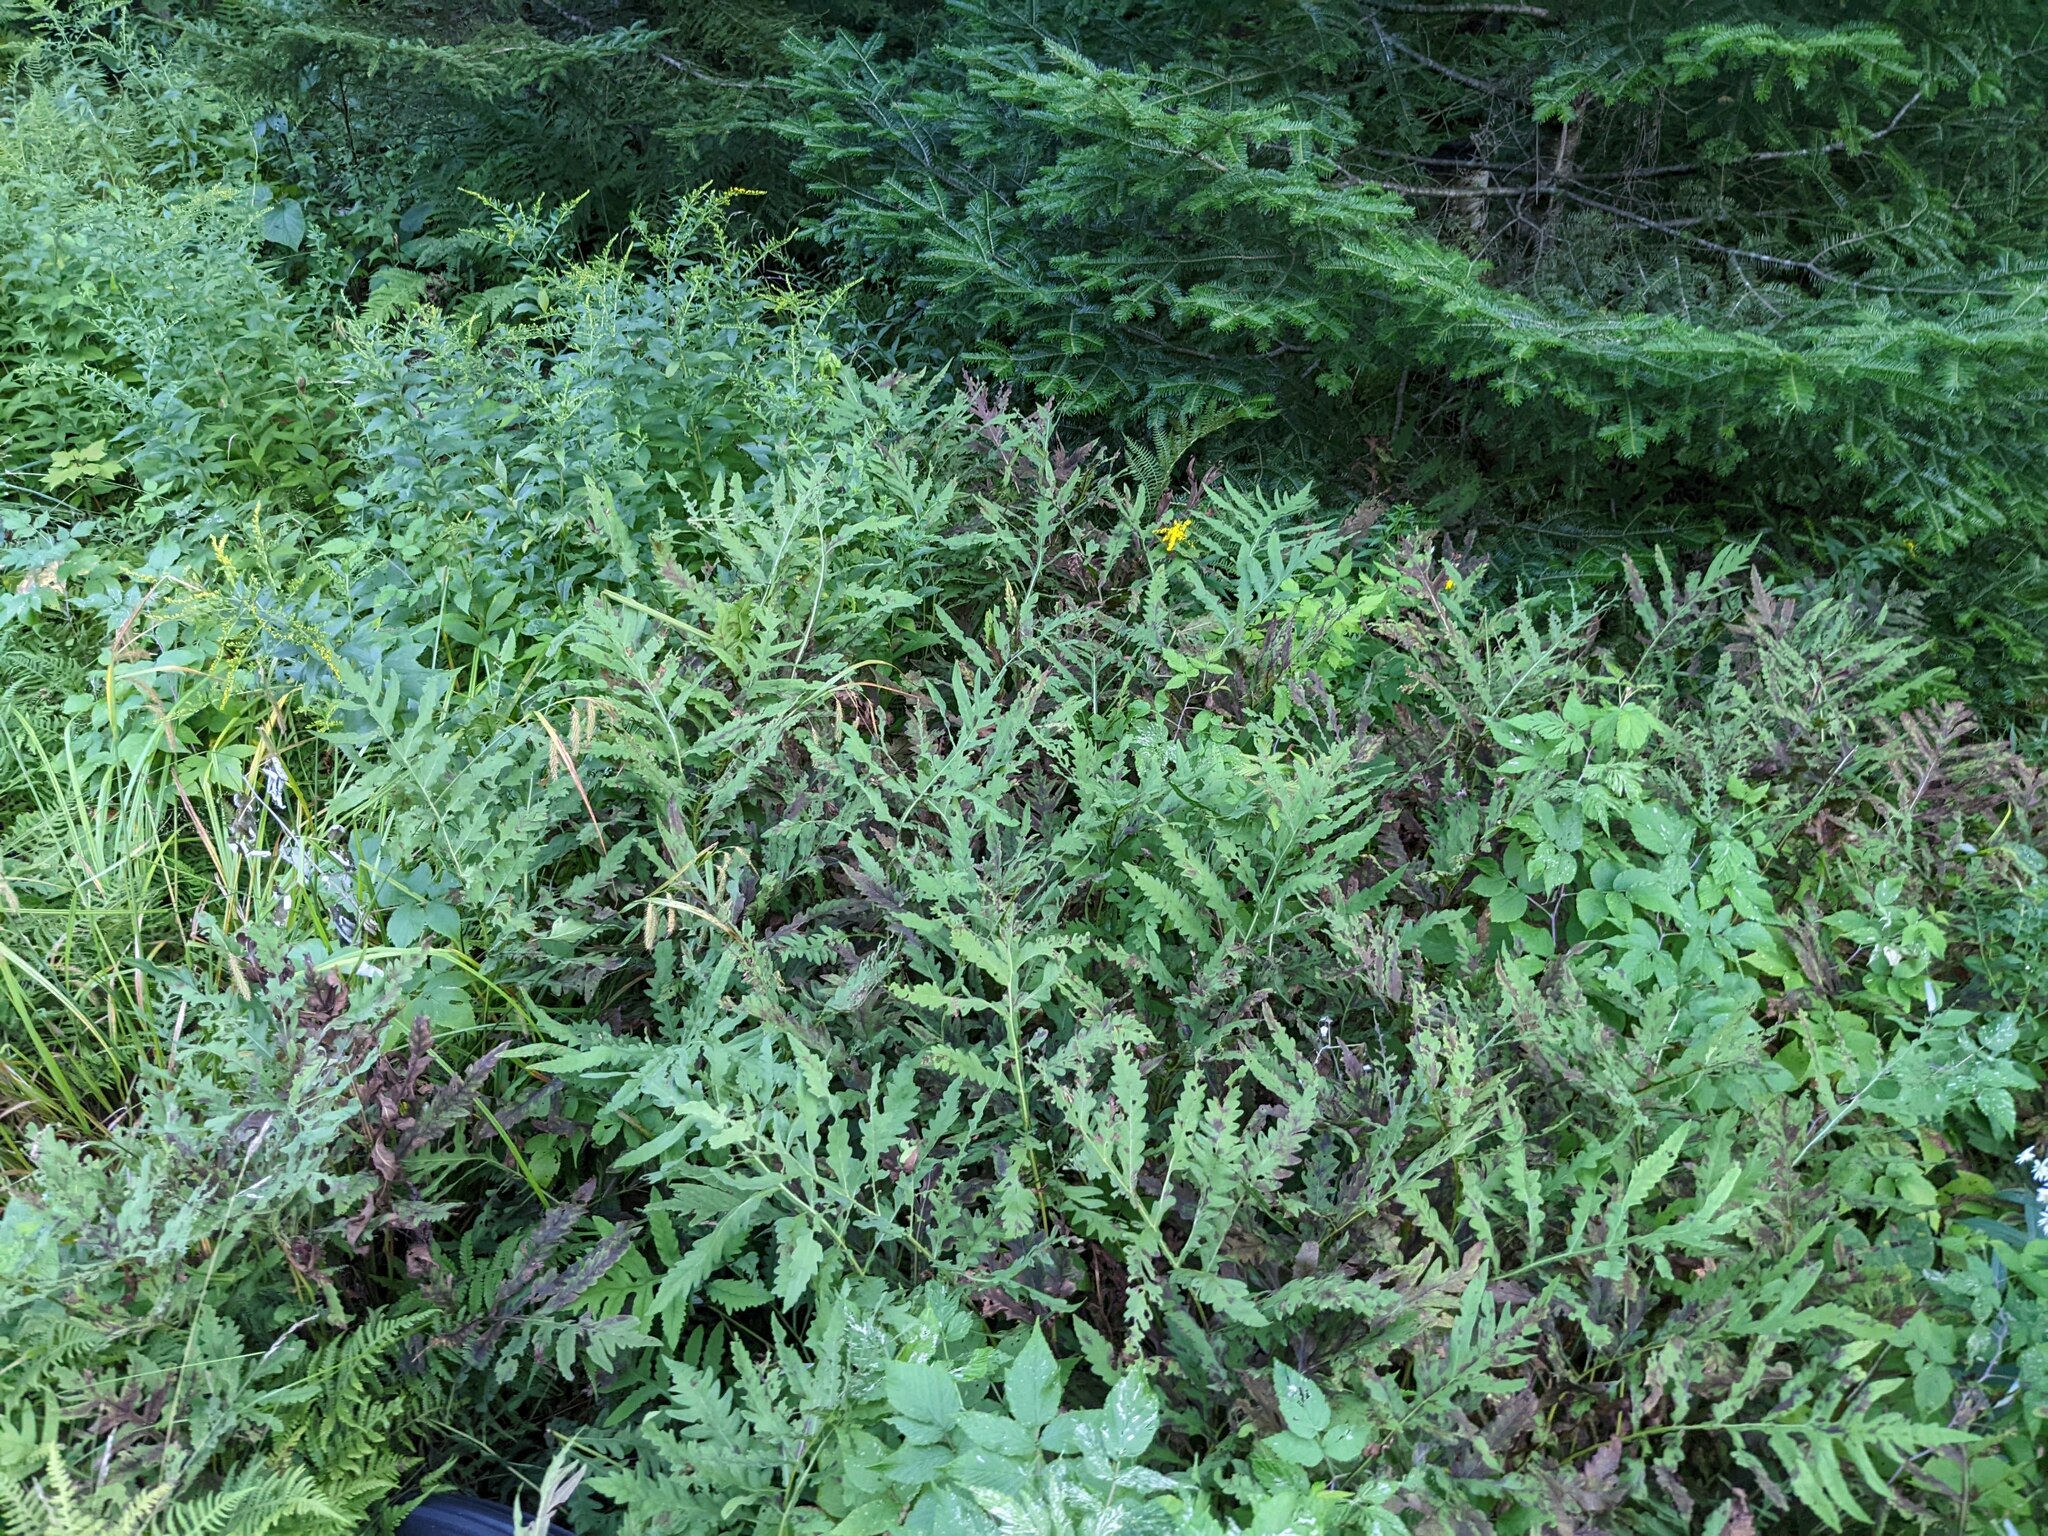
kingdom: Plantae
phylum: Tracheophyta
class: Polypodiopsida
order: Polypodiales
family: Onocleaceae
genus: Onoclea
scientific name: Onoclea sensibilis
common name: Sensitive fern
